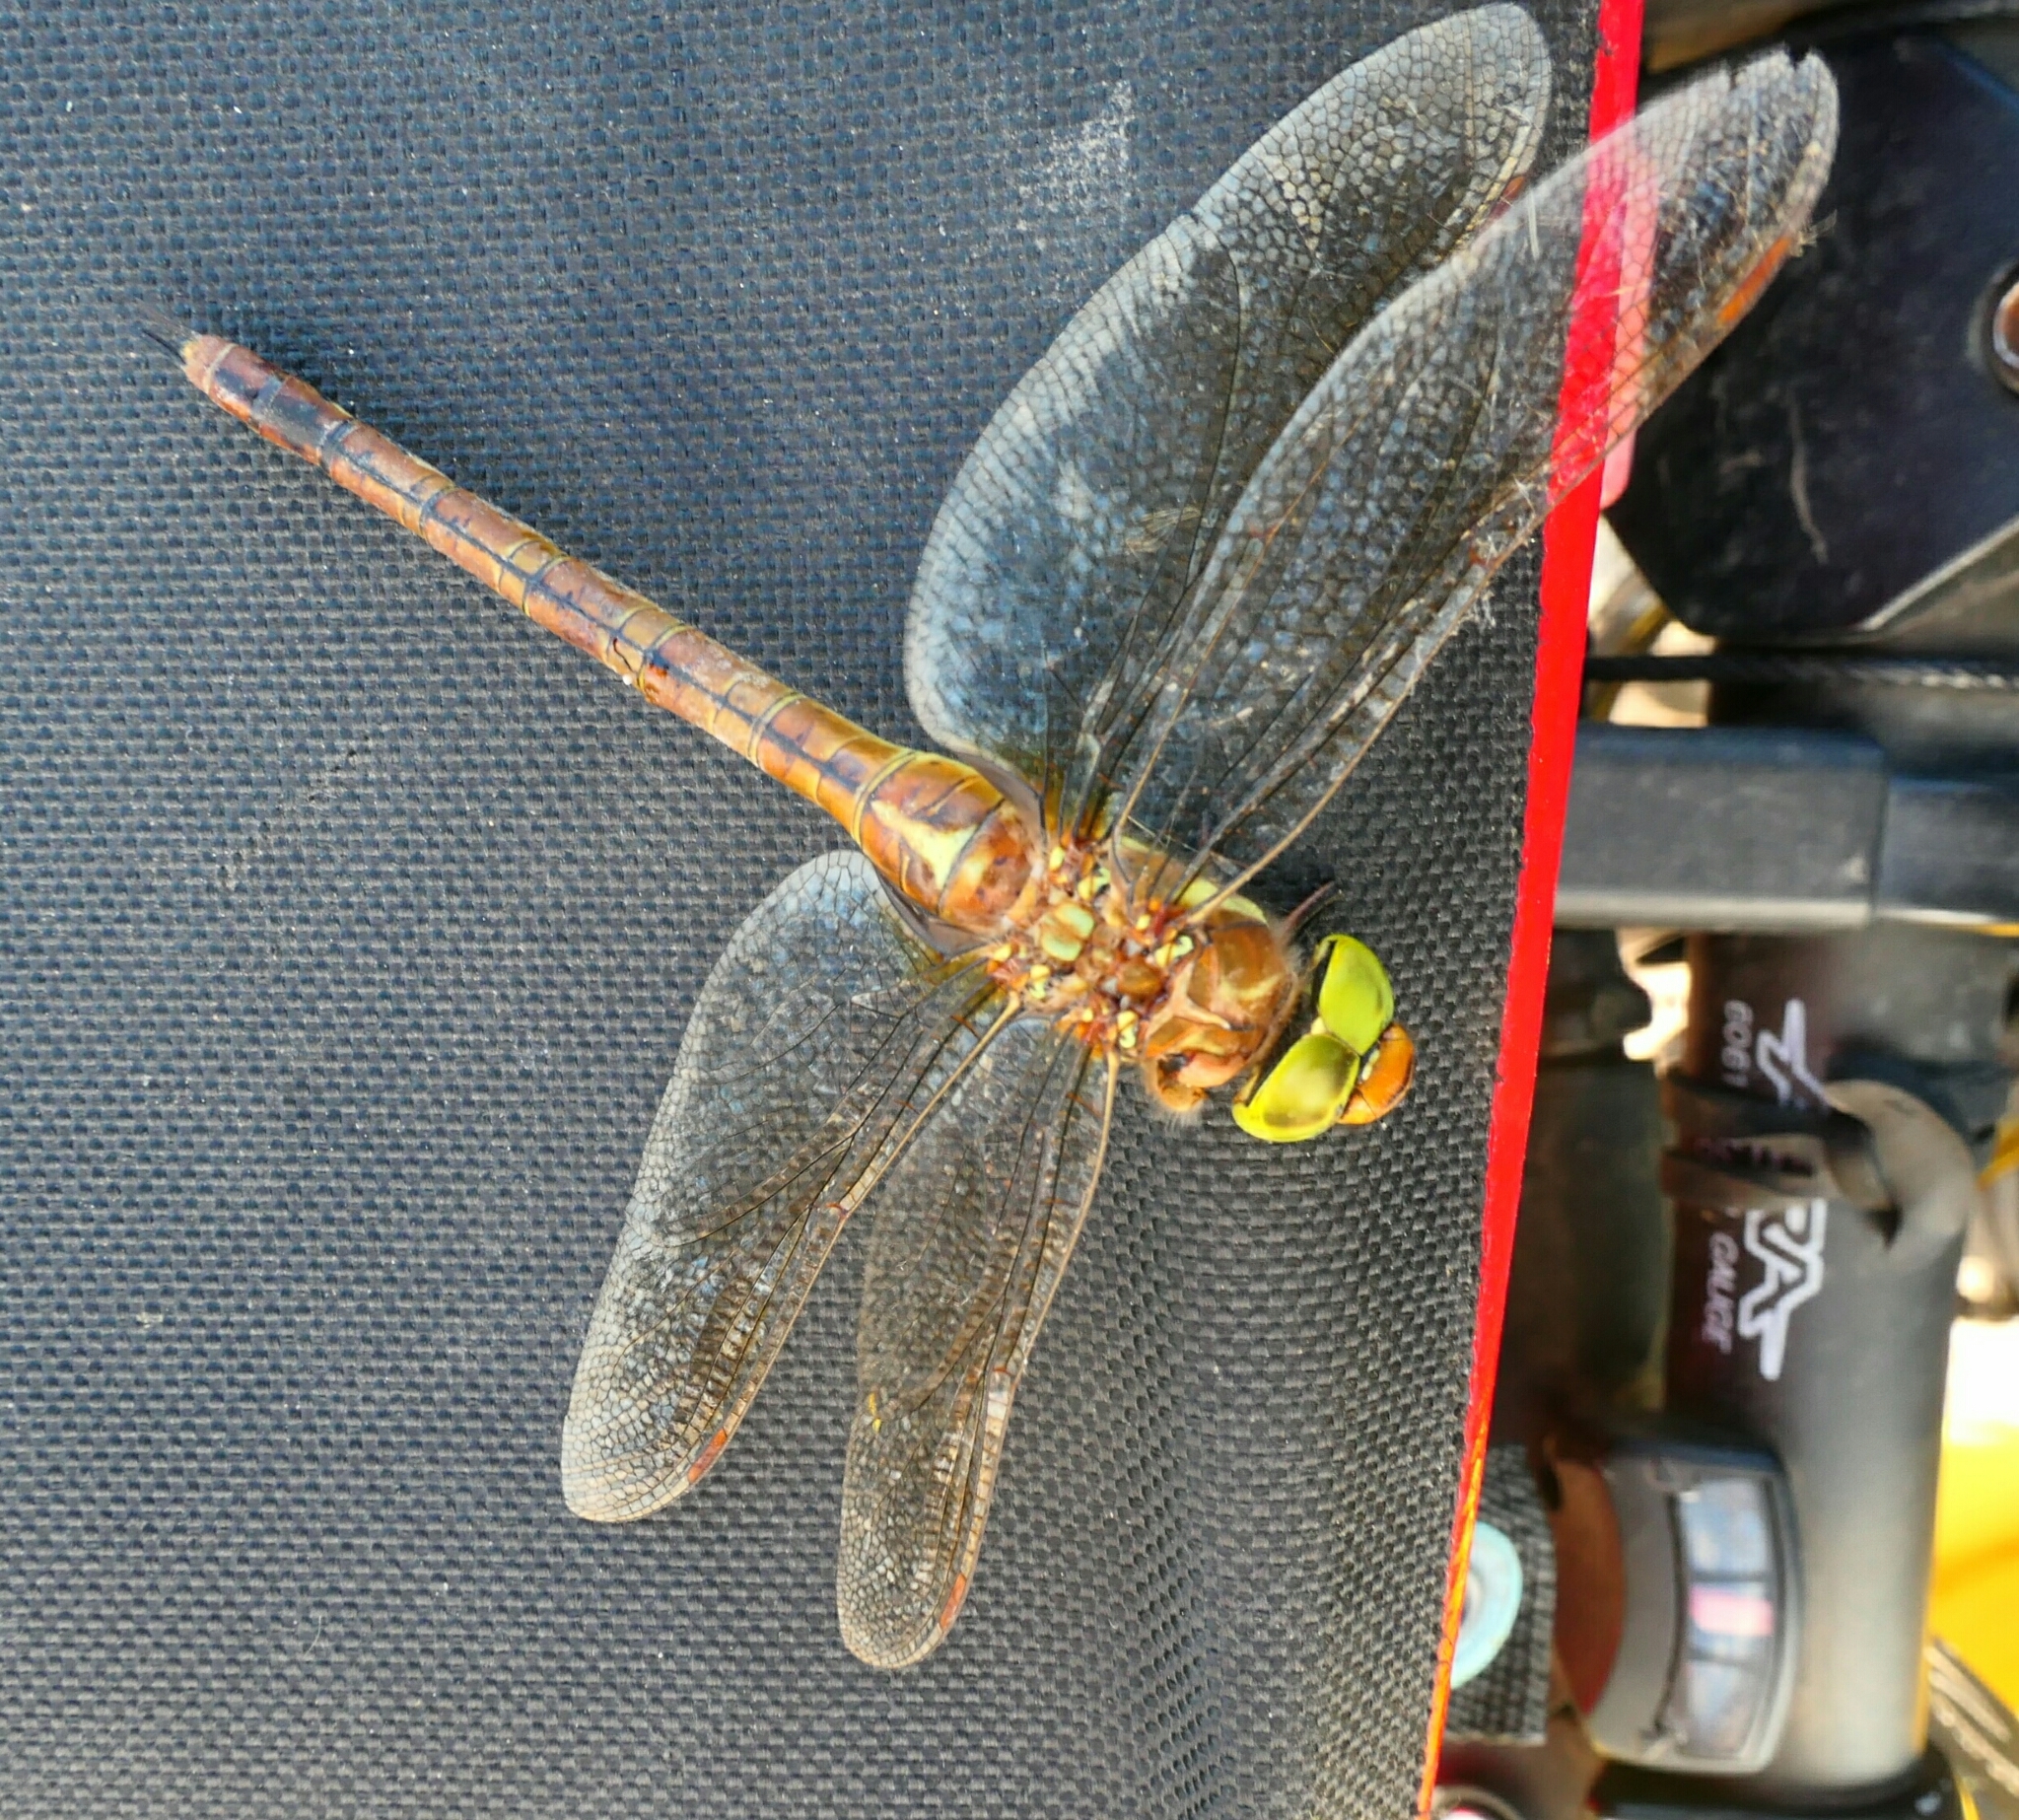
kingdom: Animalia
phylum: Arthropoda
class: Insecta
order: Odonata
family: Aeshnidae
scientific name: Aeshnidae
